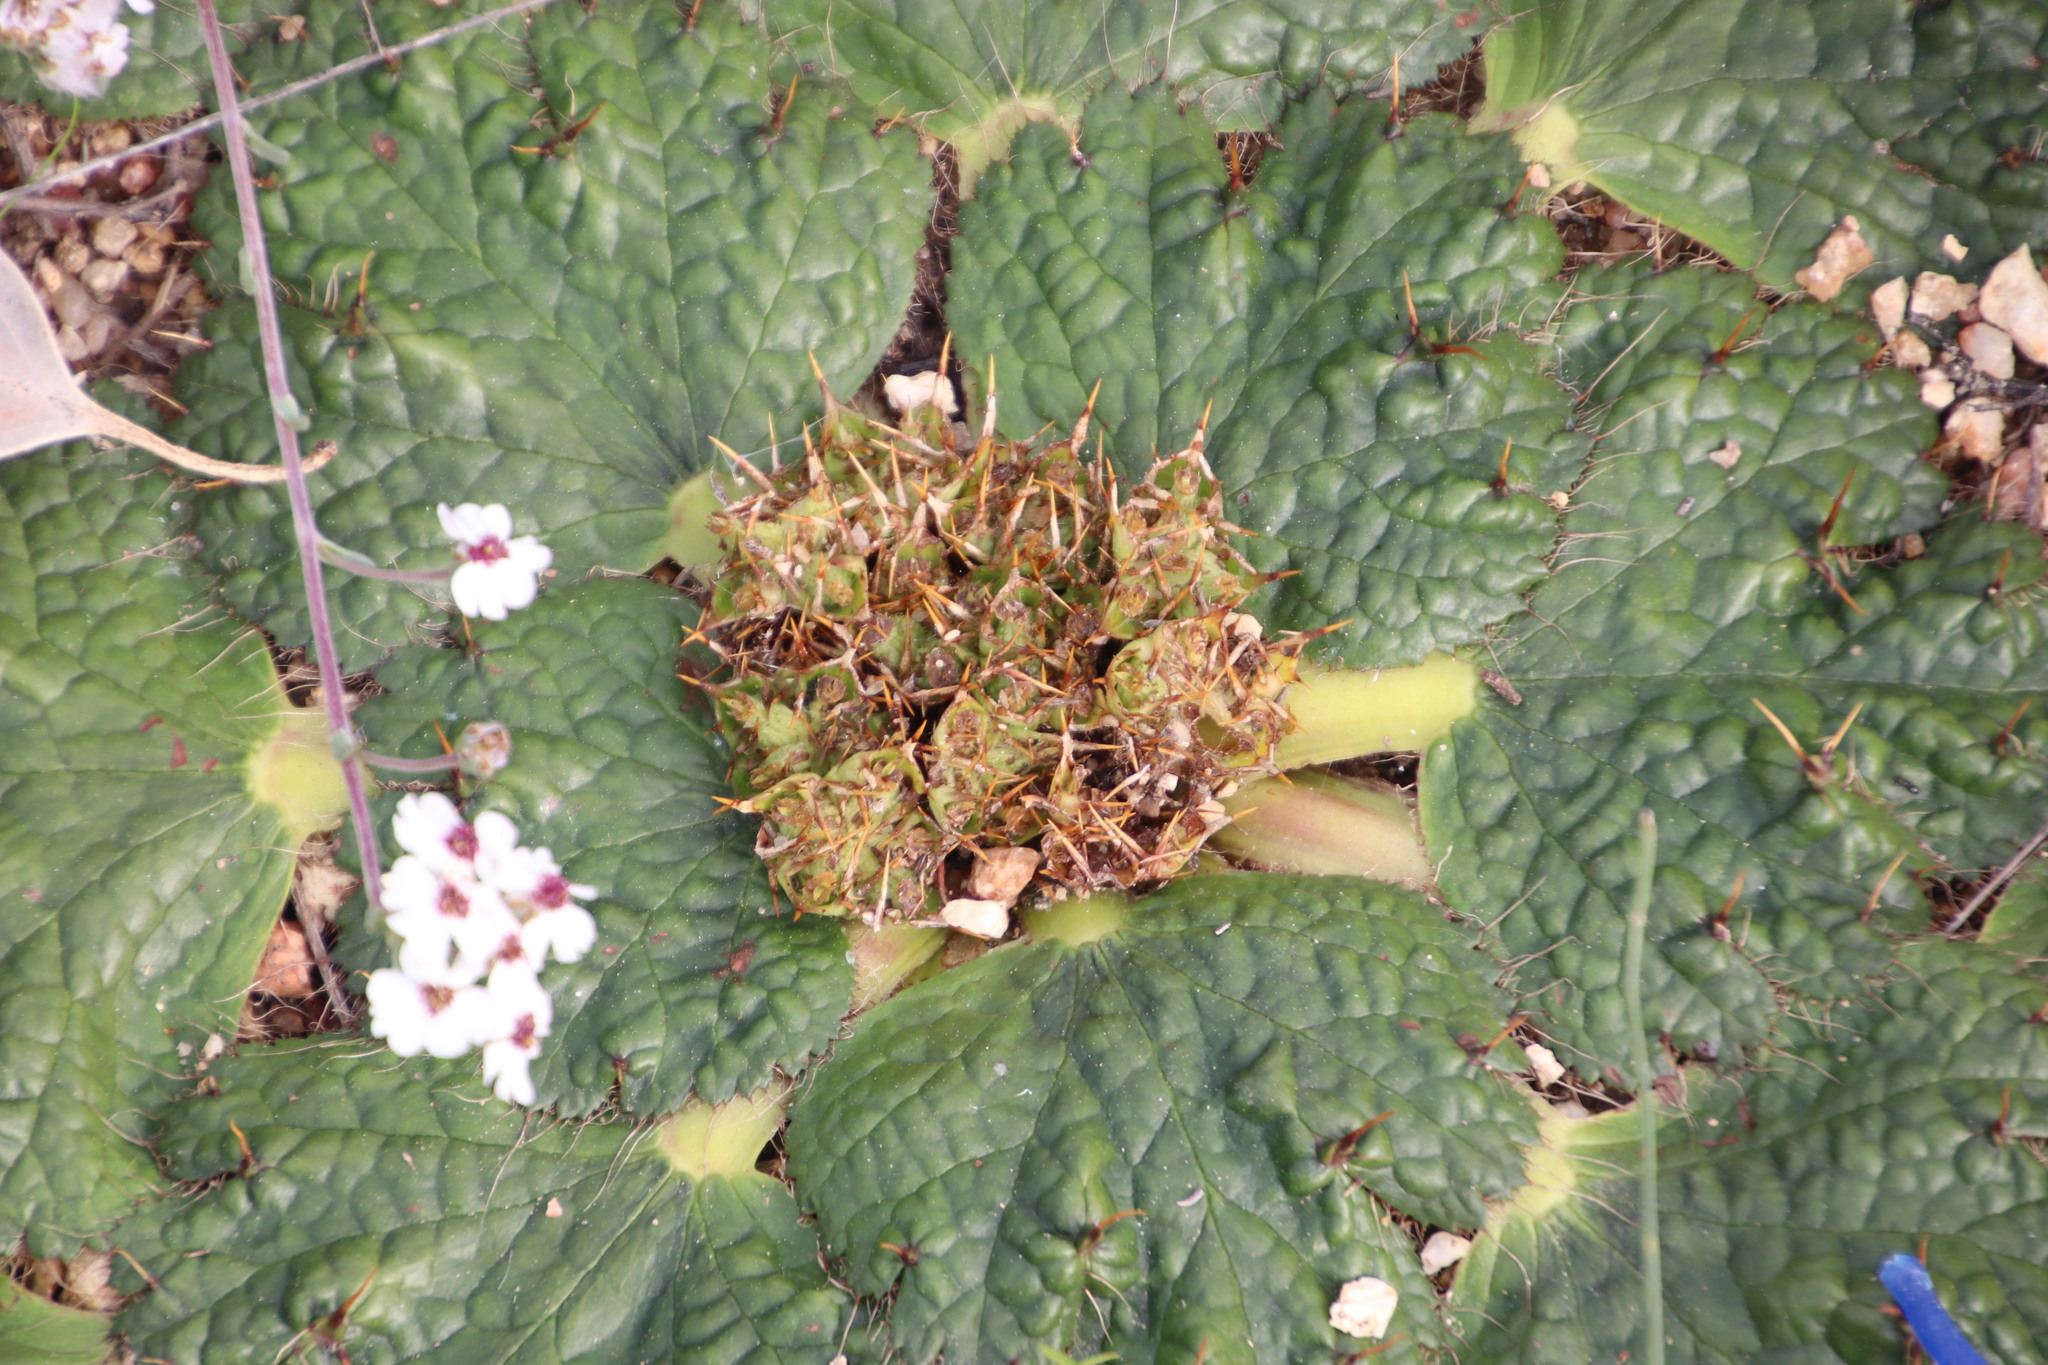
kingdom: Plantae
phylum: Tracheophyta
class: Magnoliopsida
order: Apiales
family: Apiaceae
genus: Arctopus
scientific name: Arctopus echinatus
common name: Platdoring
